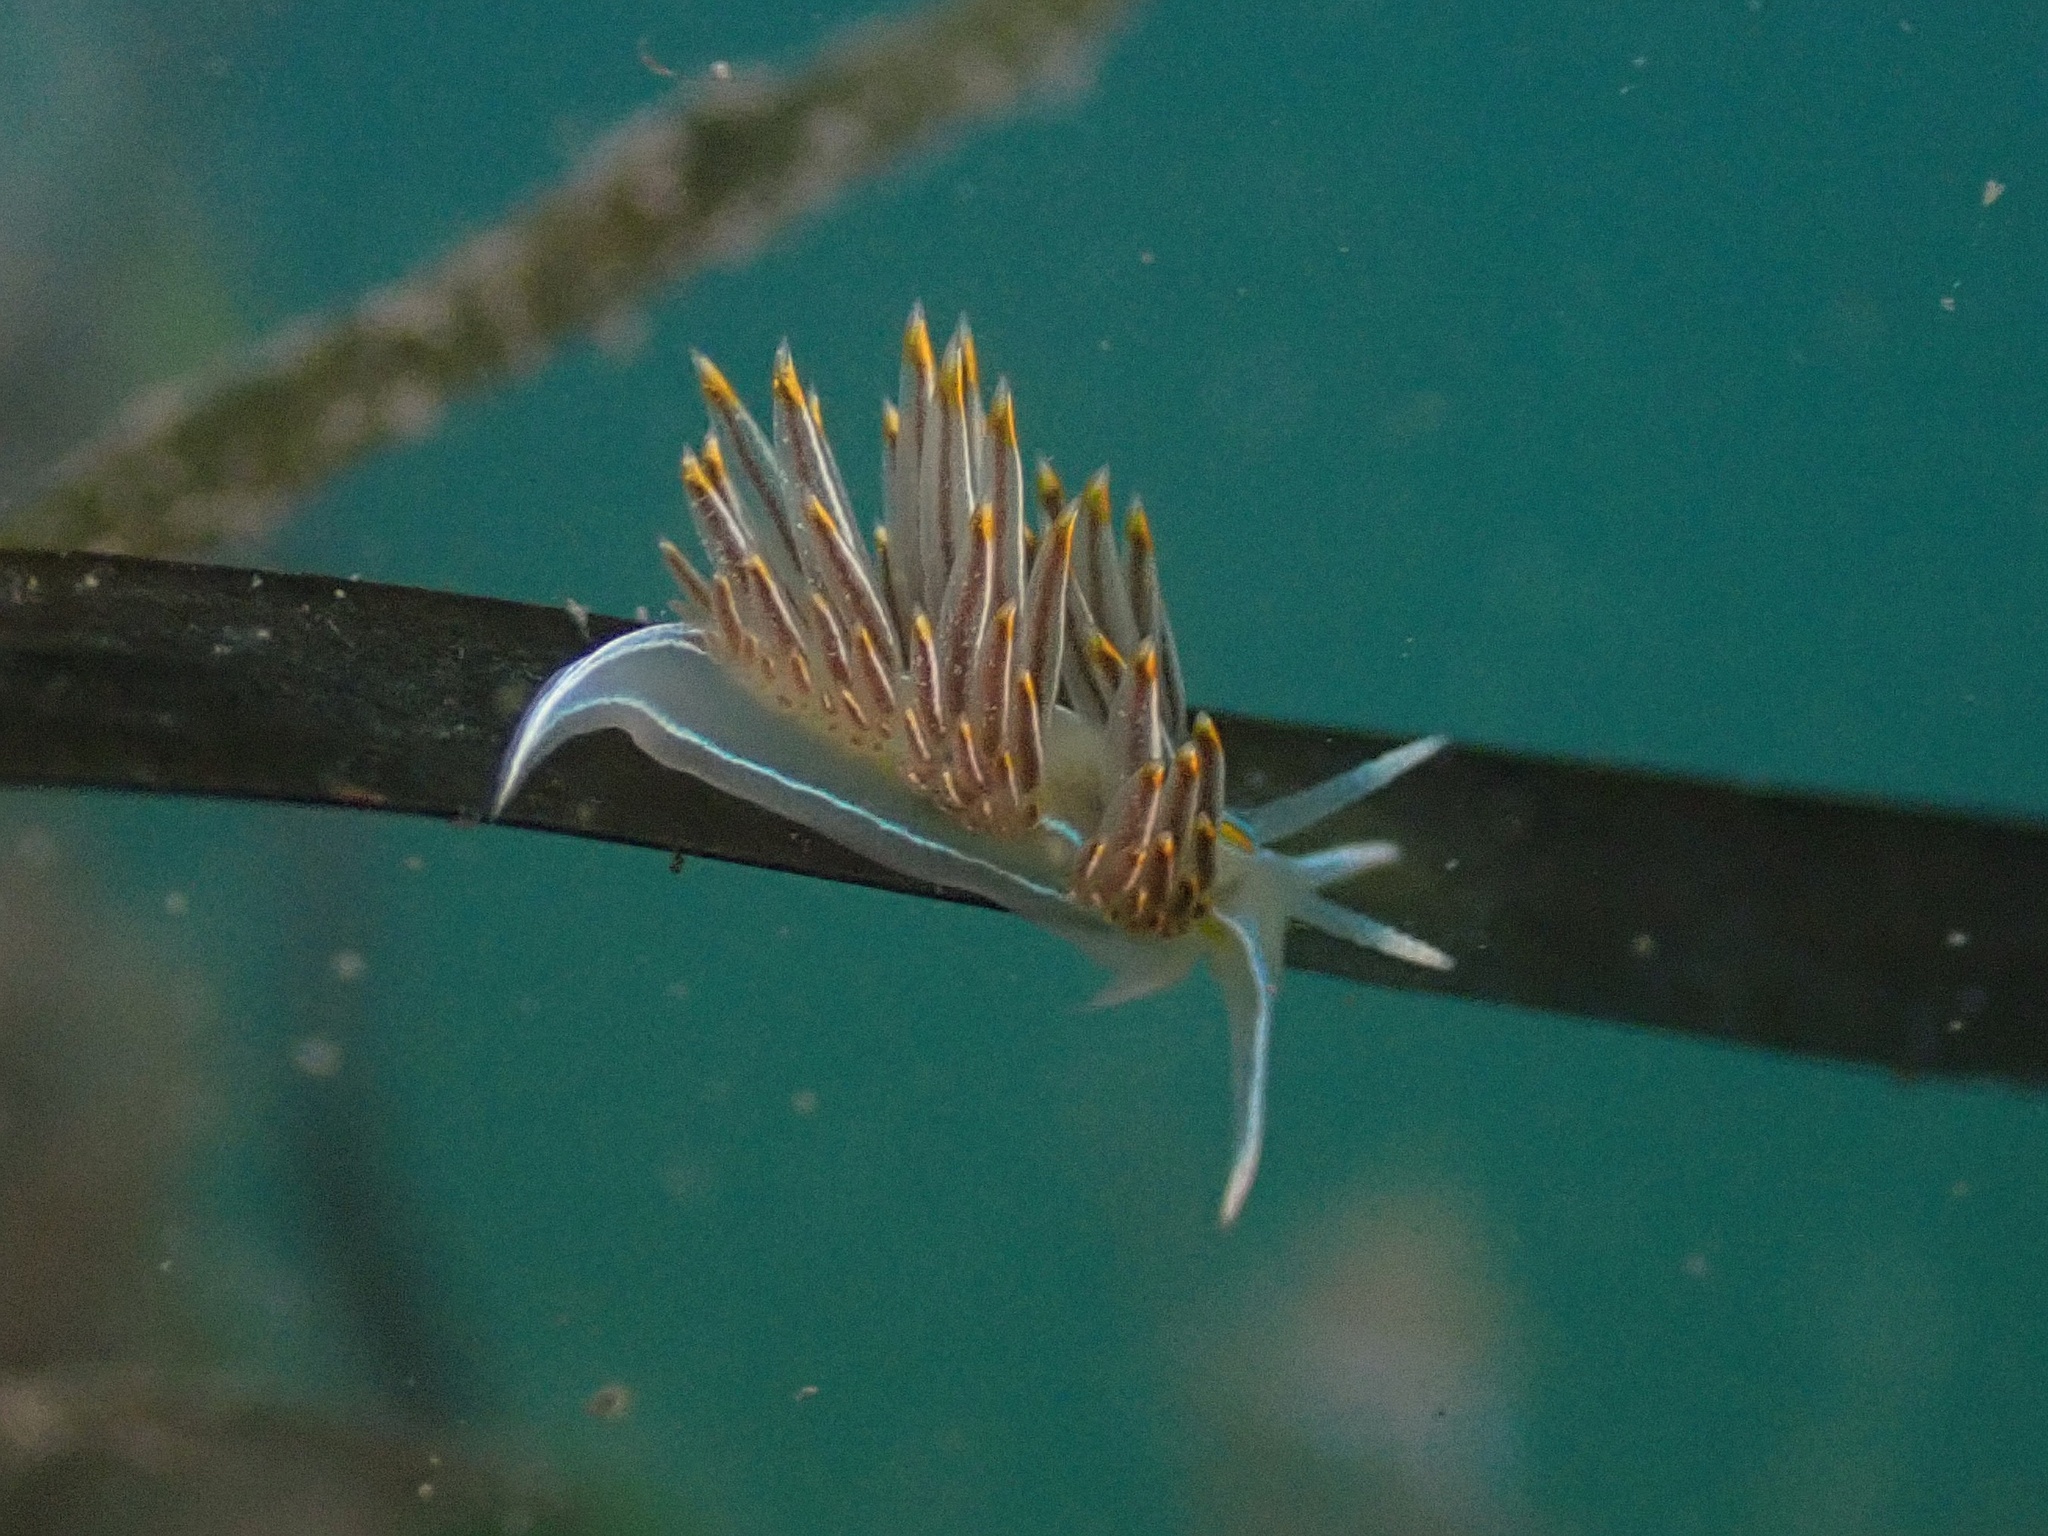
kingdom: Animalia
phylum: Mollusca
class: Gastropoda
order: Nudibranchia
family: Myrrhinidae
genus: Hermissenda
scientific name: Hermissenda crassicornis
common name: Hermissenda
